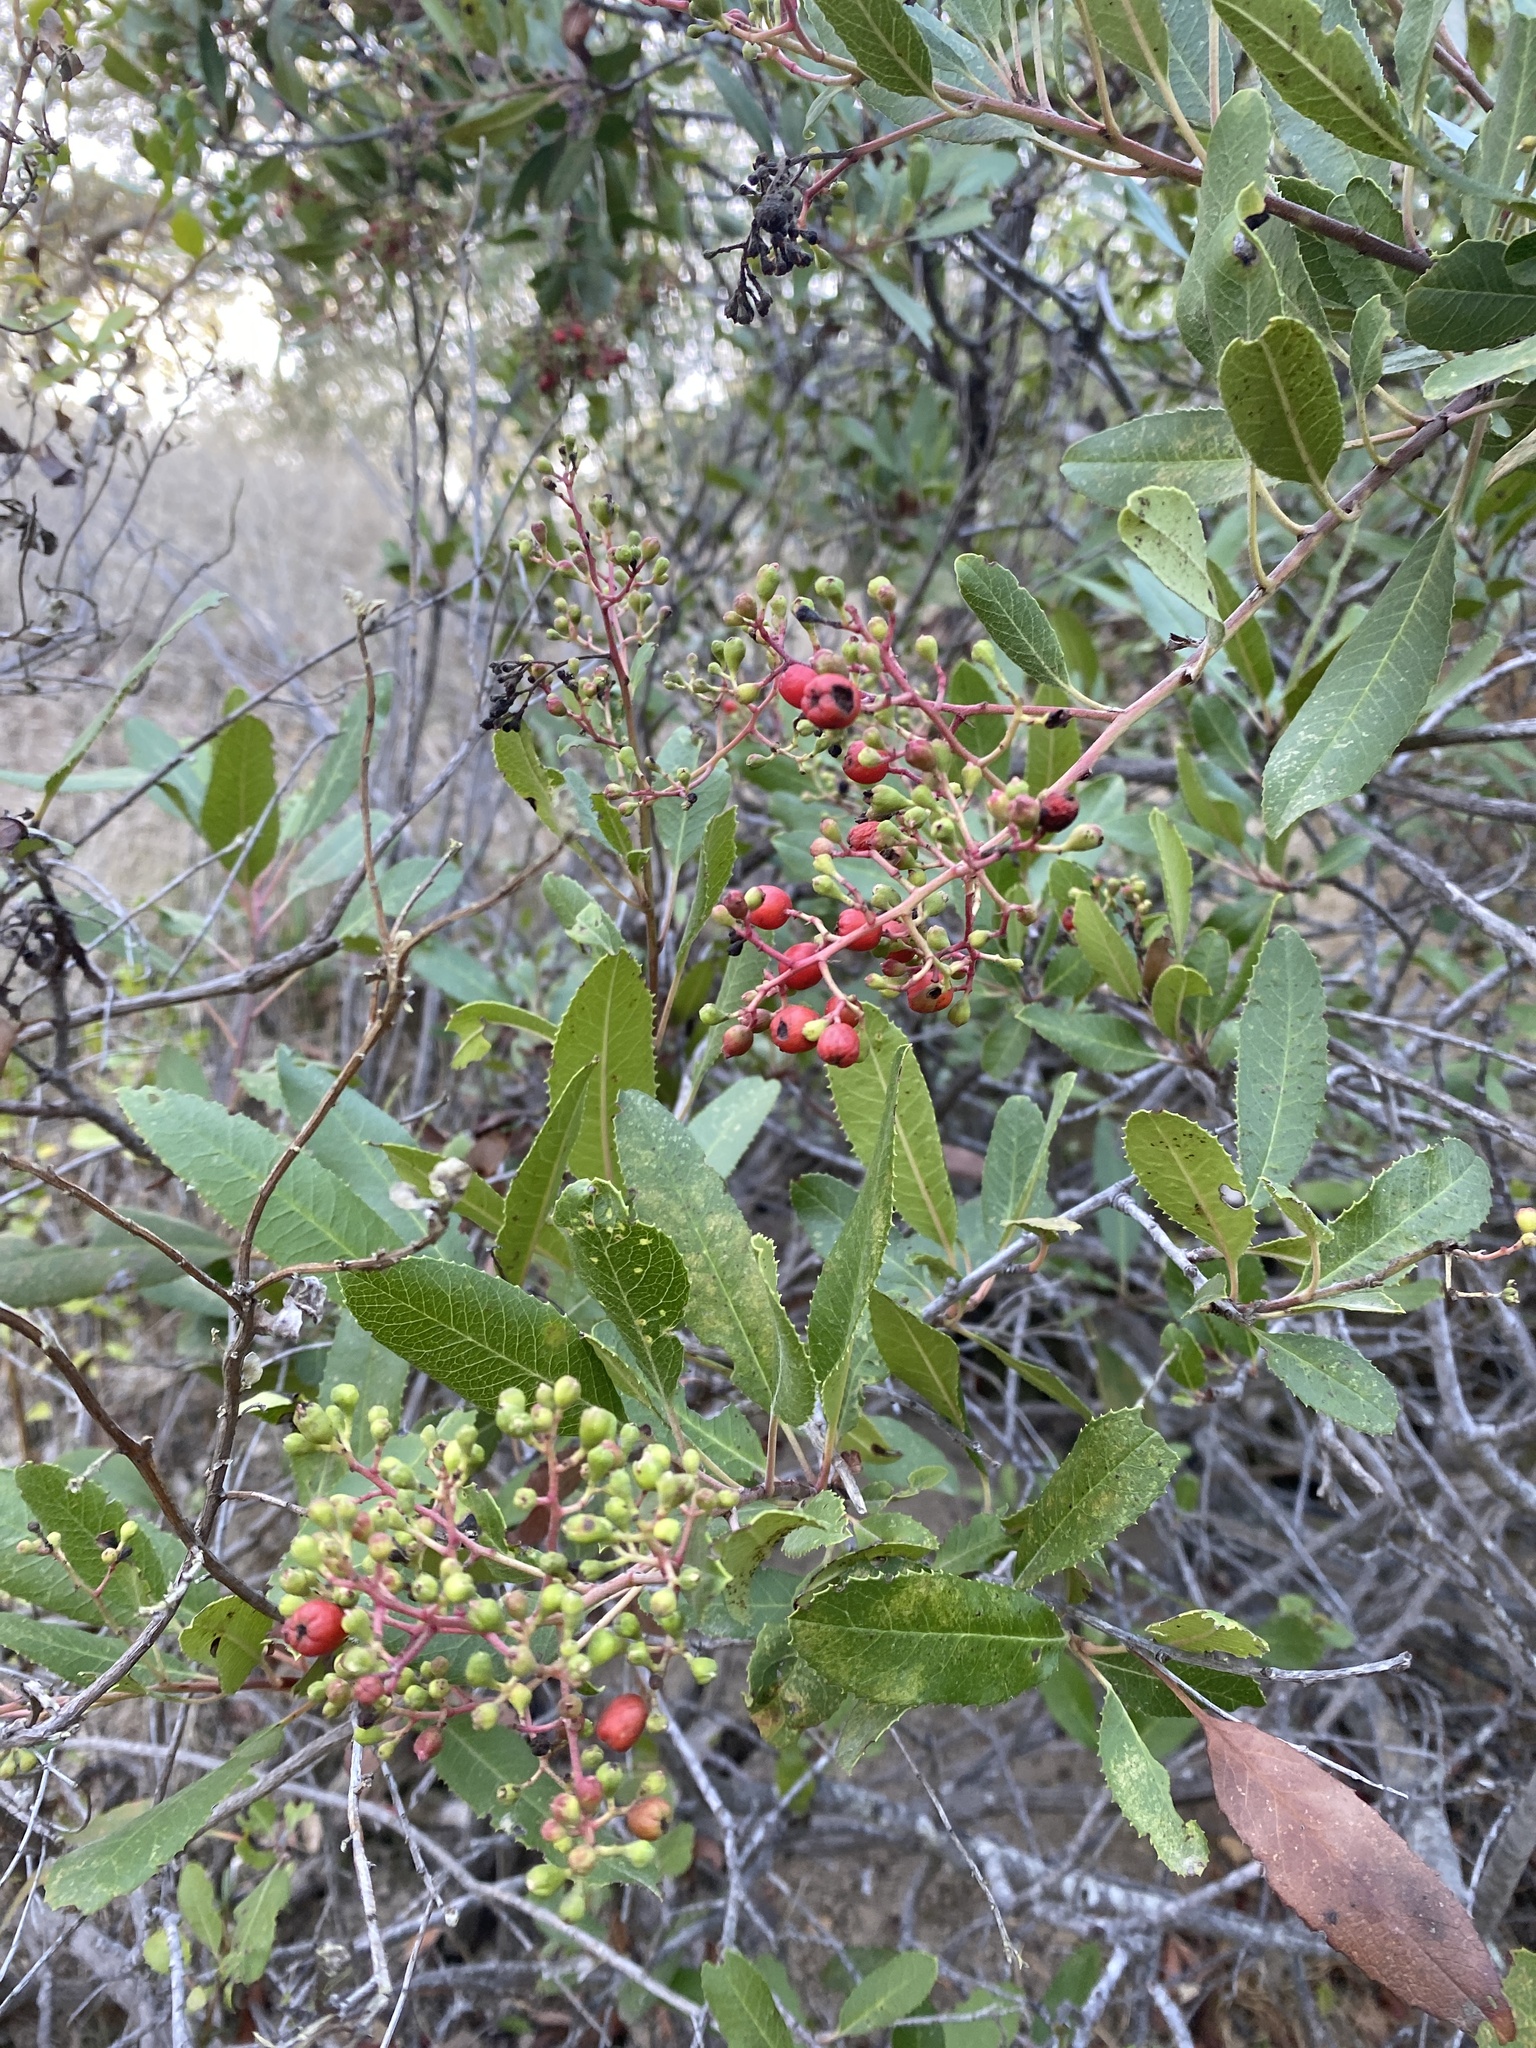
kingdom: Plantae
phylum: Tracheophyta
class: Magnoliopsida
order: Rosales
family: Rosaceae
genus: Heteromeles
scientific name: Heteromeles arbutifolia
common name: California-holly
